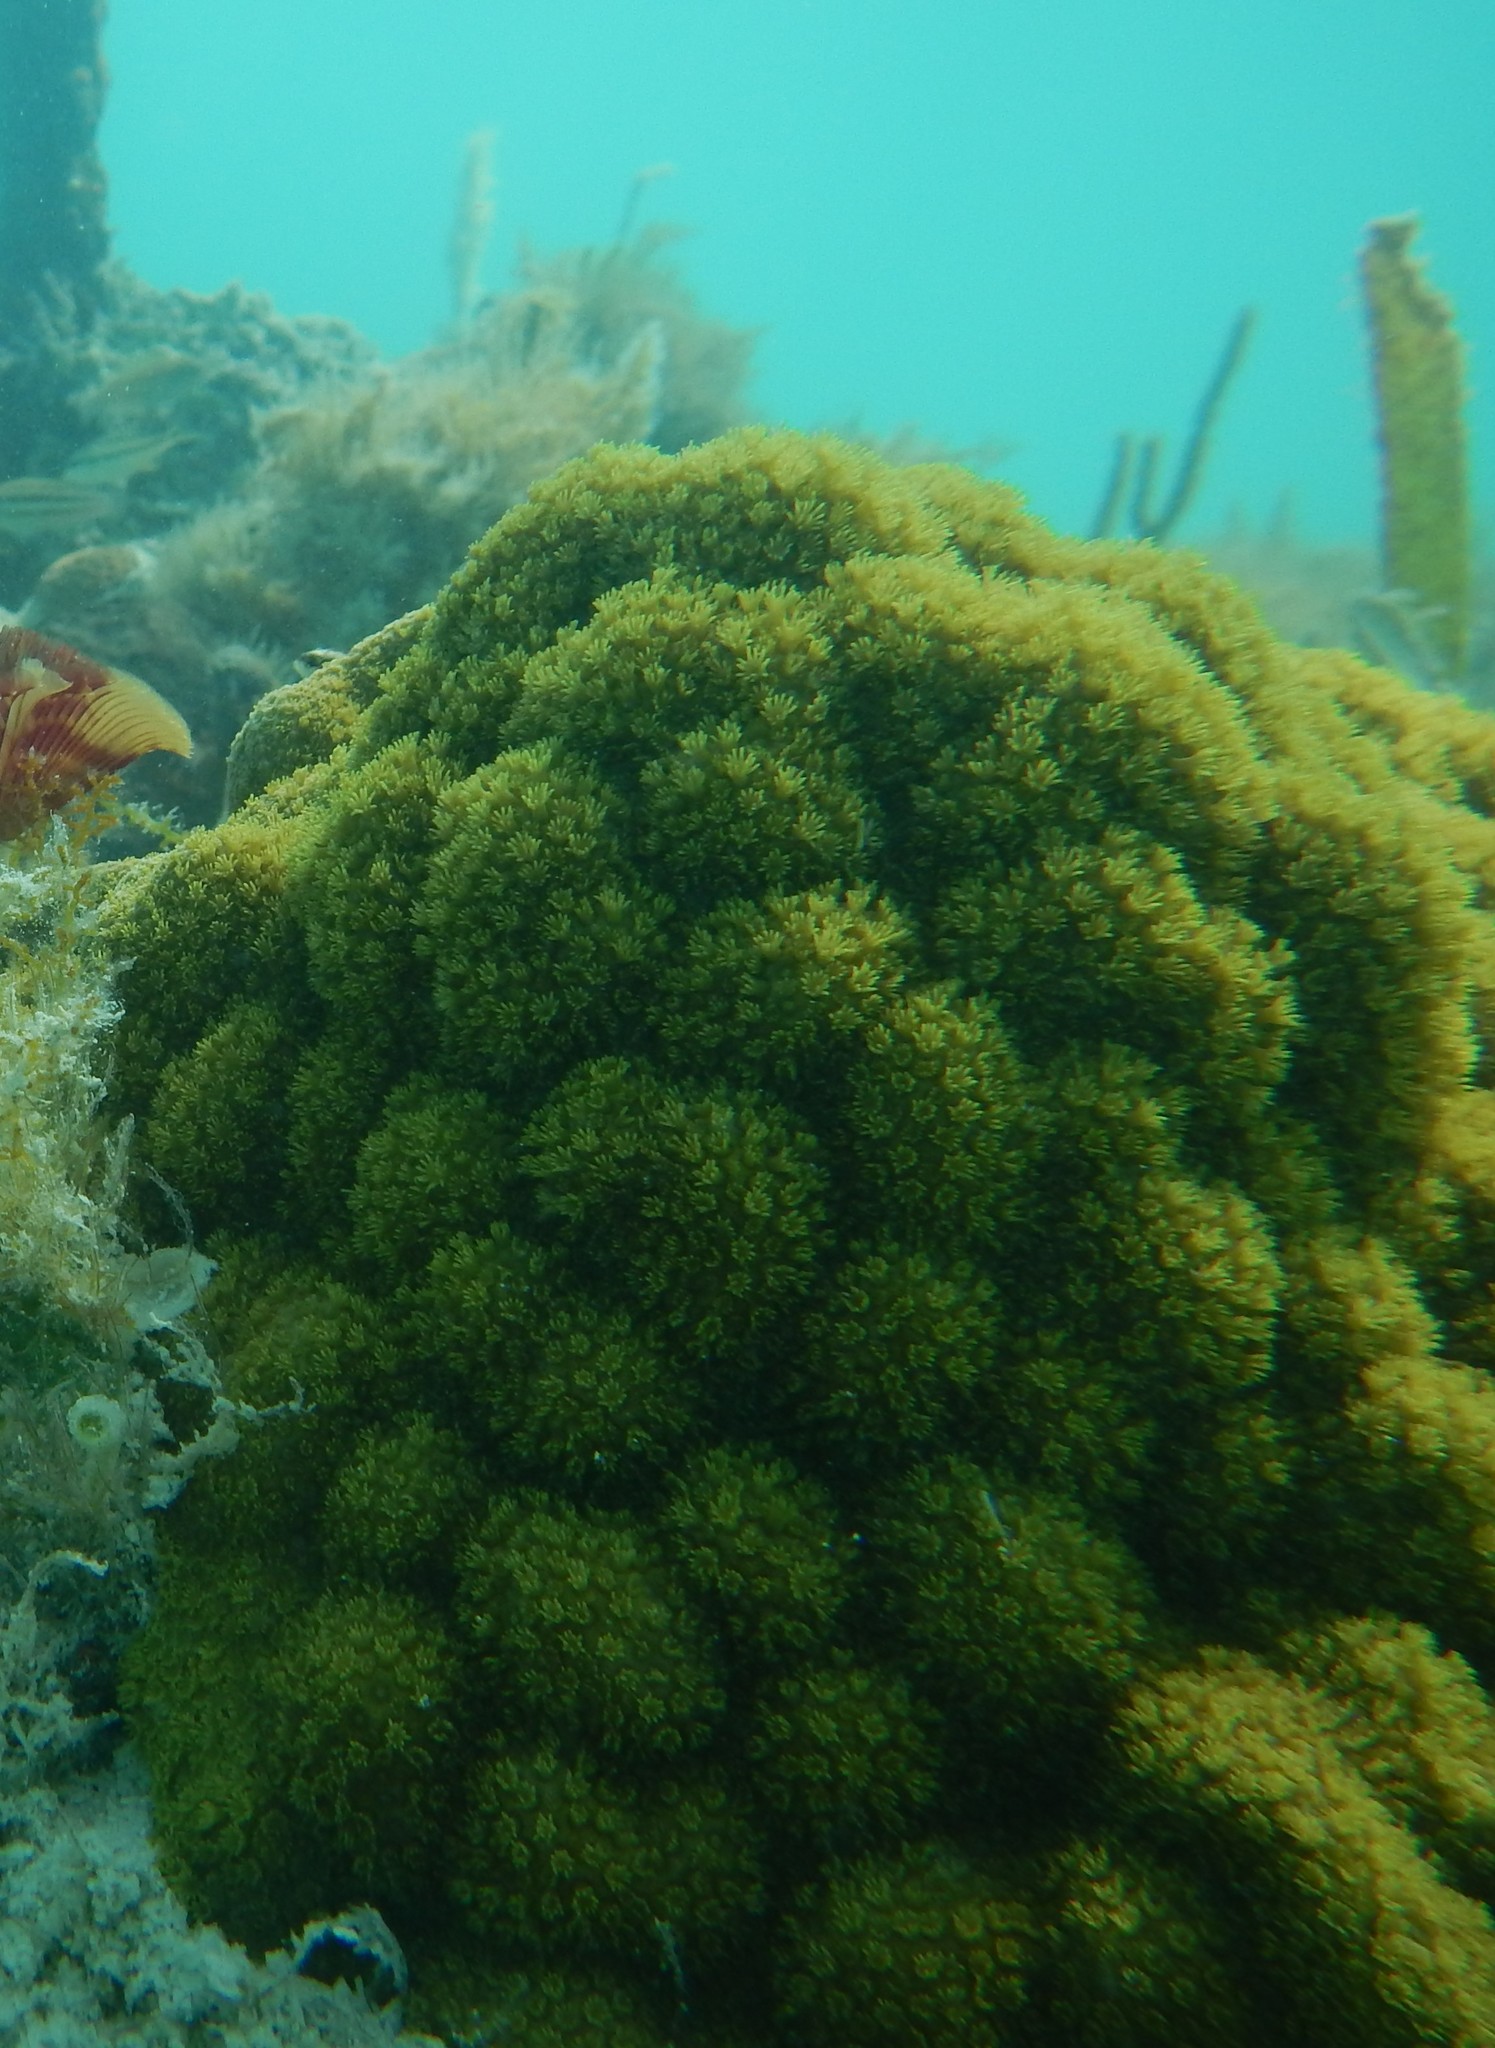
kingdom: Animalia
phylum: Cnidaria
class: Anthozoa
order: Scleractinia
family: Poritidae
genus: Porites
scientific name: Porites astreoides
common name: Mustard hill coral
